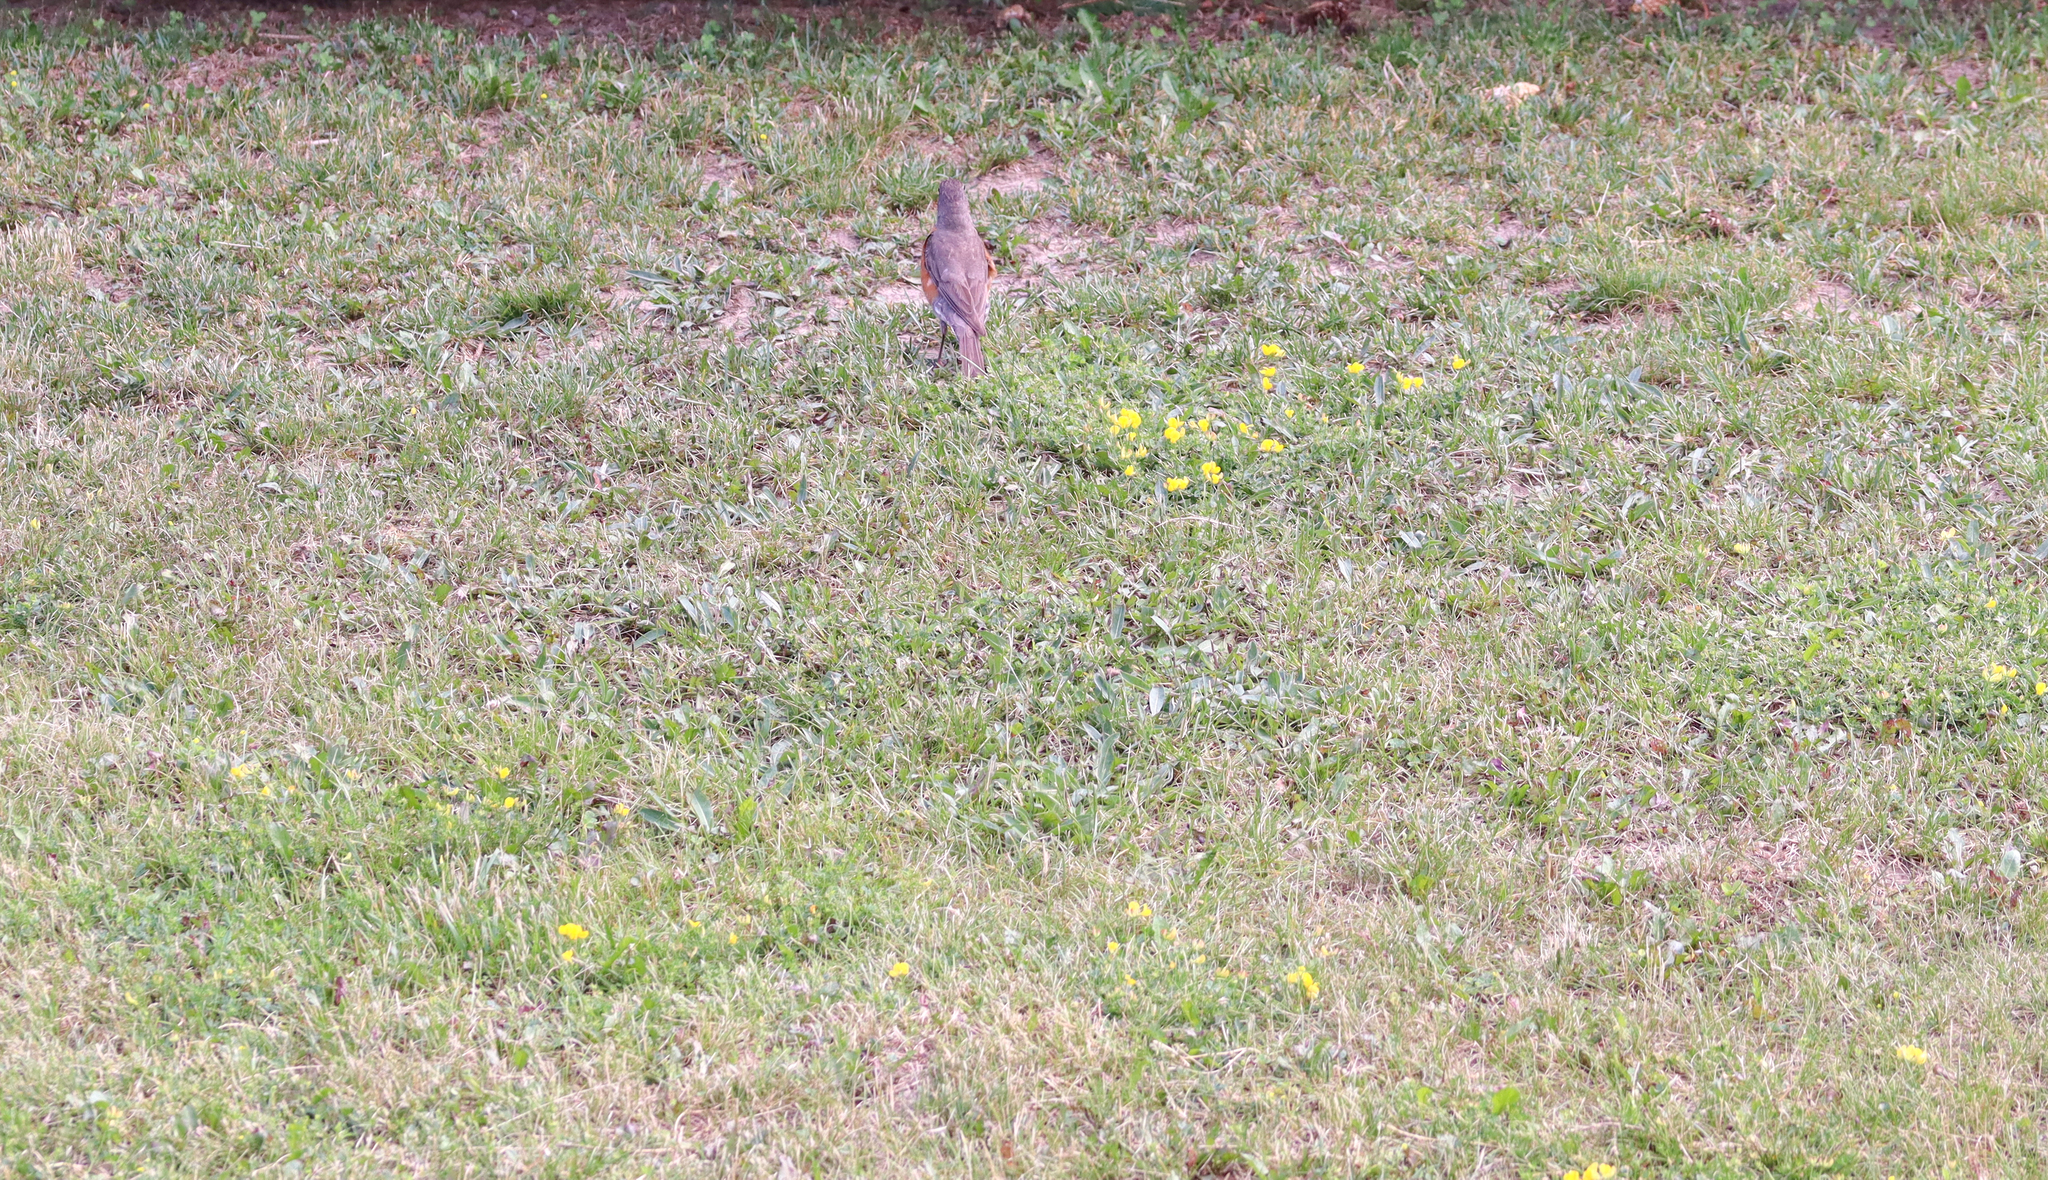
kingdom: Animalia
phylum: Chordata
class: Aves
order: Passeriformes
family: Turdidae
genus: Turdus
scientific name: Turdus migratorius
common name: American robin
